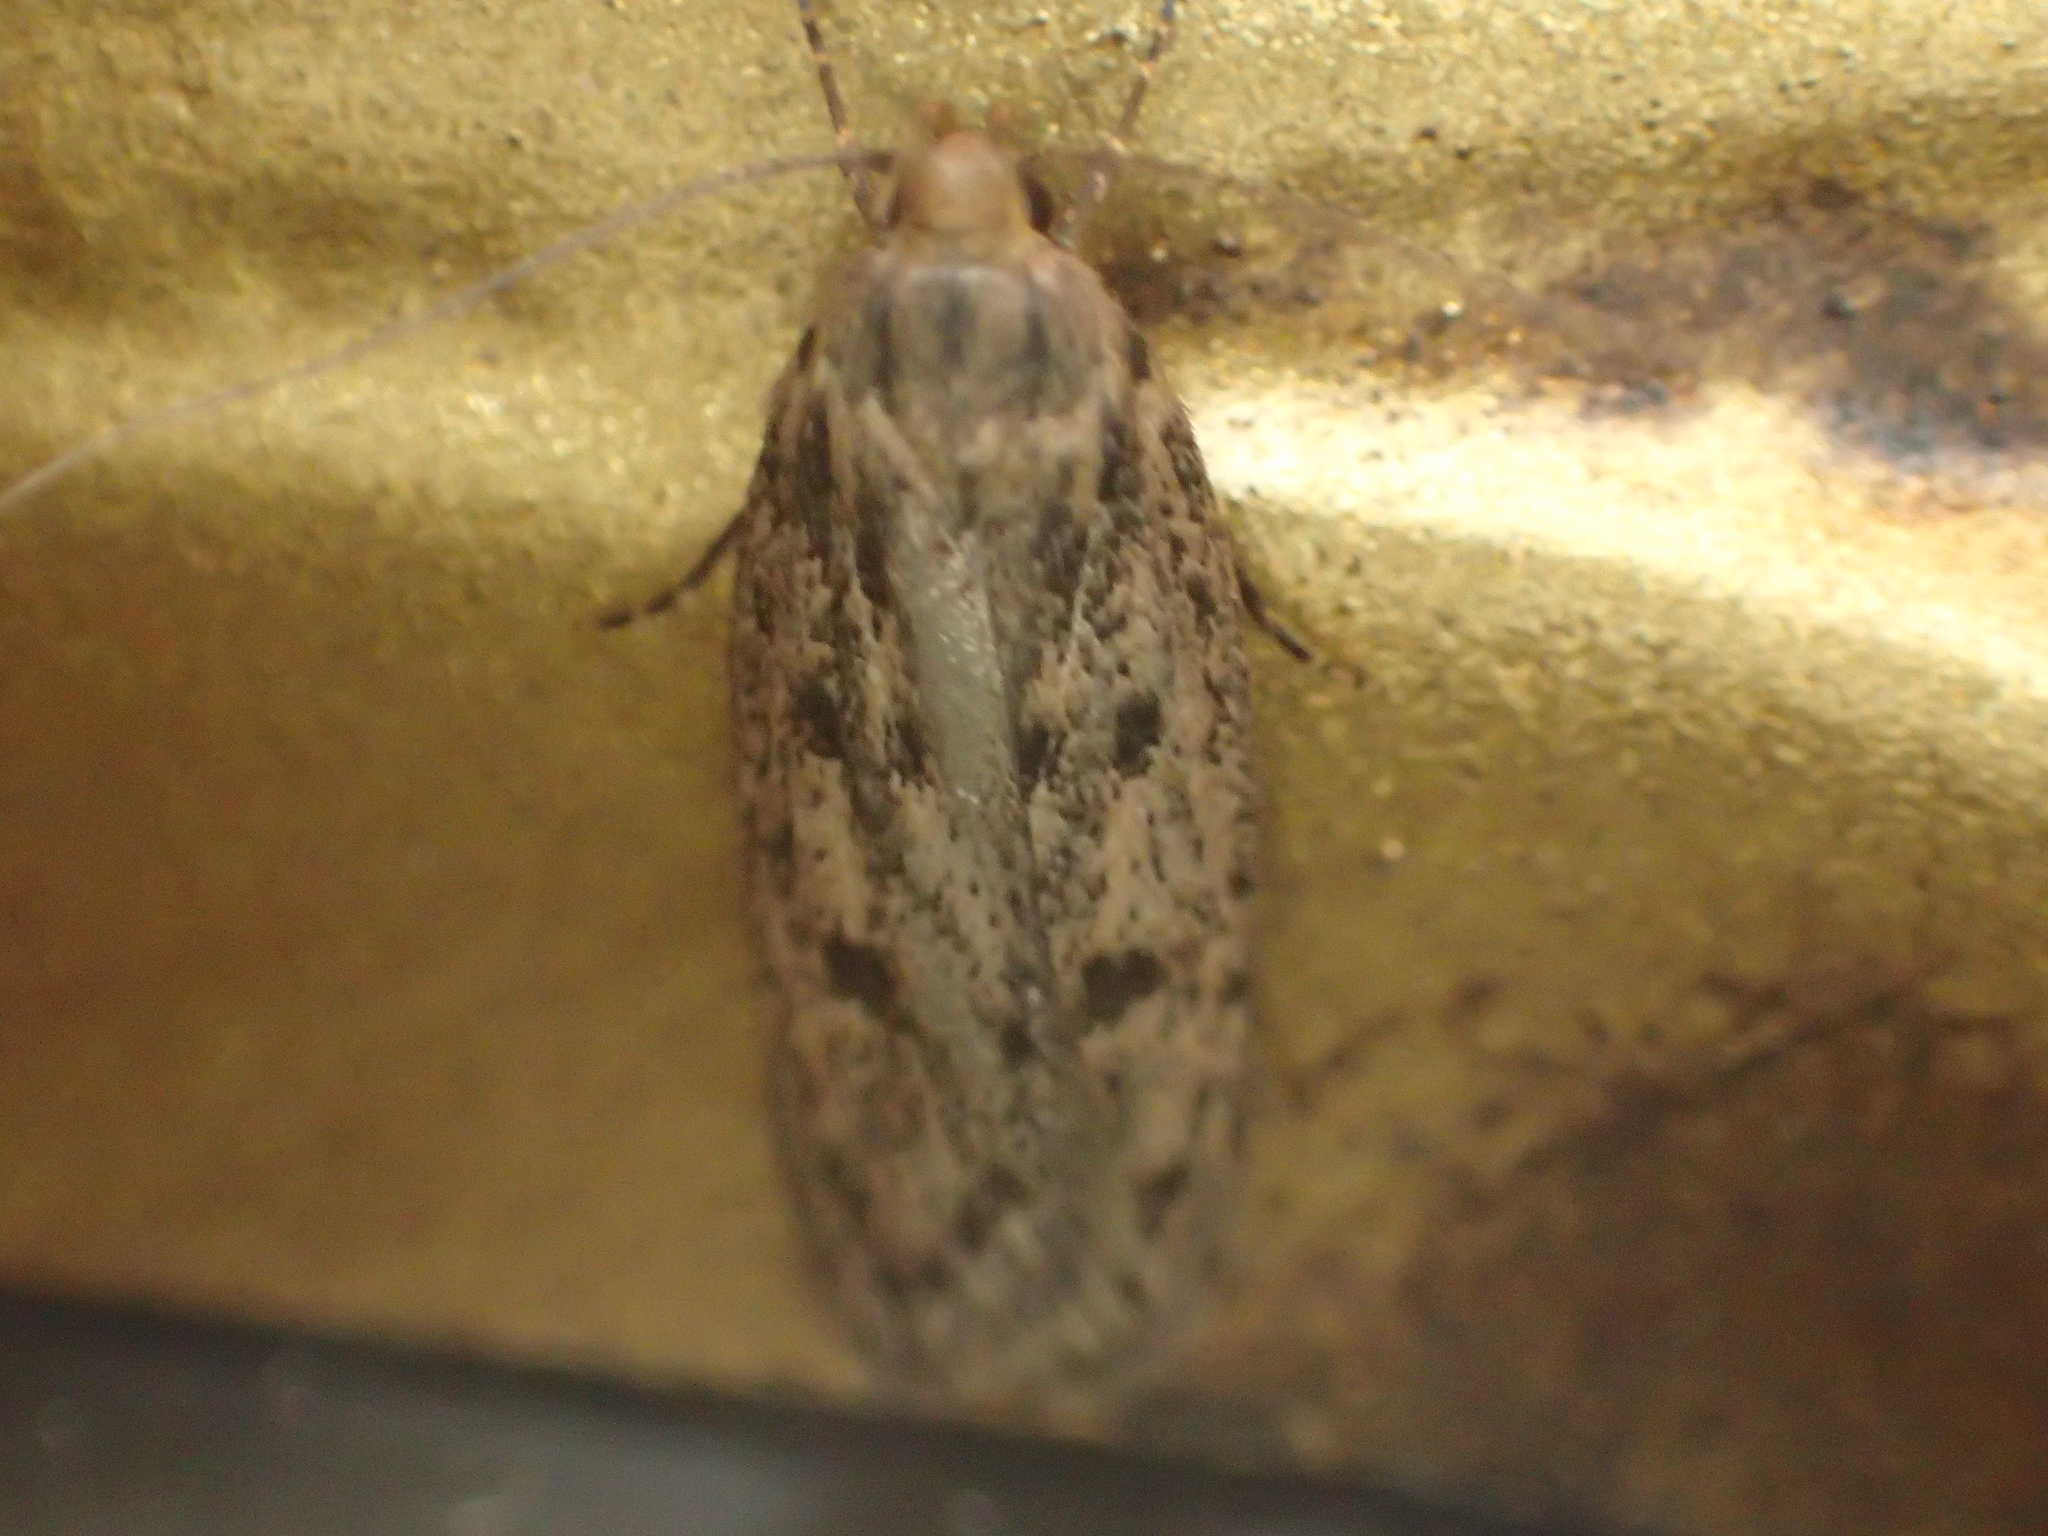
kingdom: Animalia
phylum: Arthropoda
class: Insecta
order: Lepidoptera
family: Oecophoridae
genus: Hofmannophila
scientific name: Hofmannophila pseudospretella
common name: Brown house moth
